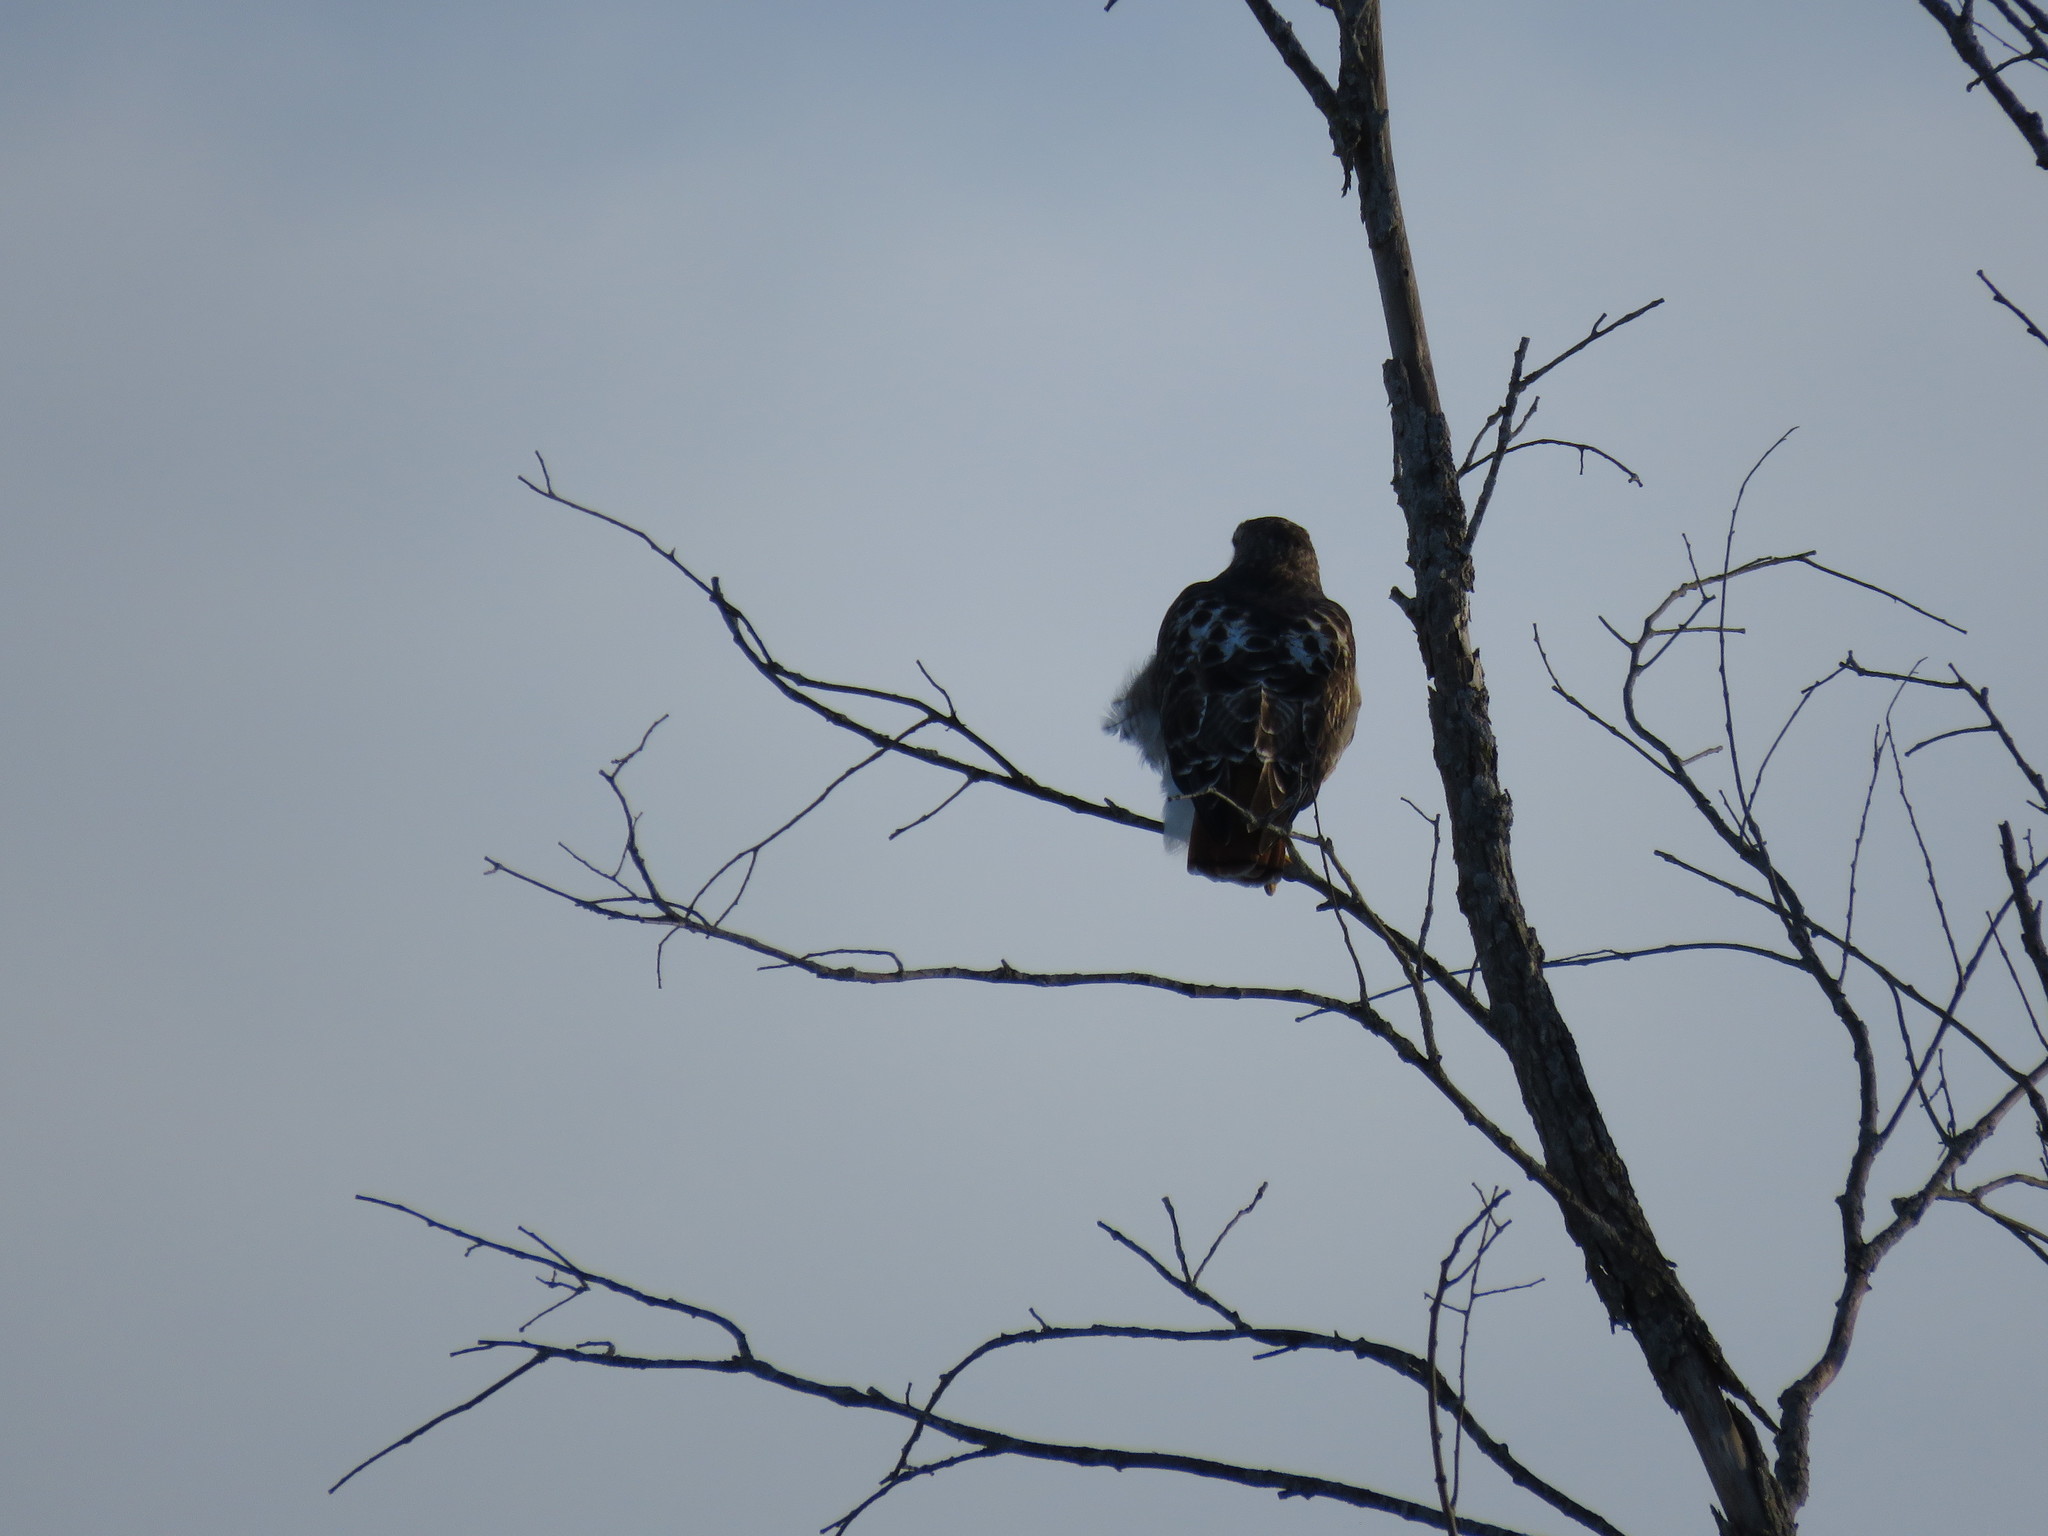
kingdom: Animalia
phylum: Chordata
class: Aves
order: Accipitriformes
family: Accipitridae
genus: Buteo
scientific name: Buteo jamaicensis
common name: Red-tailed hawk
